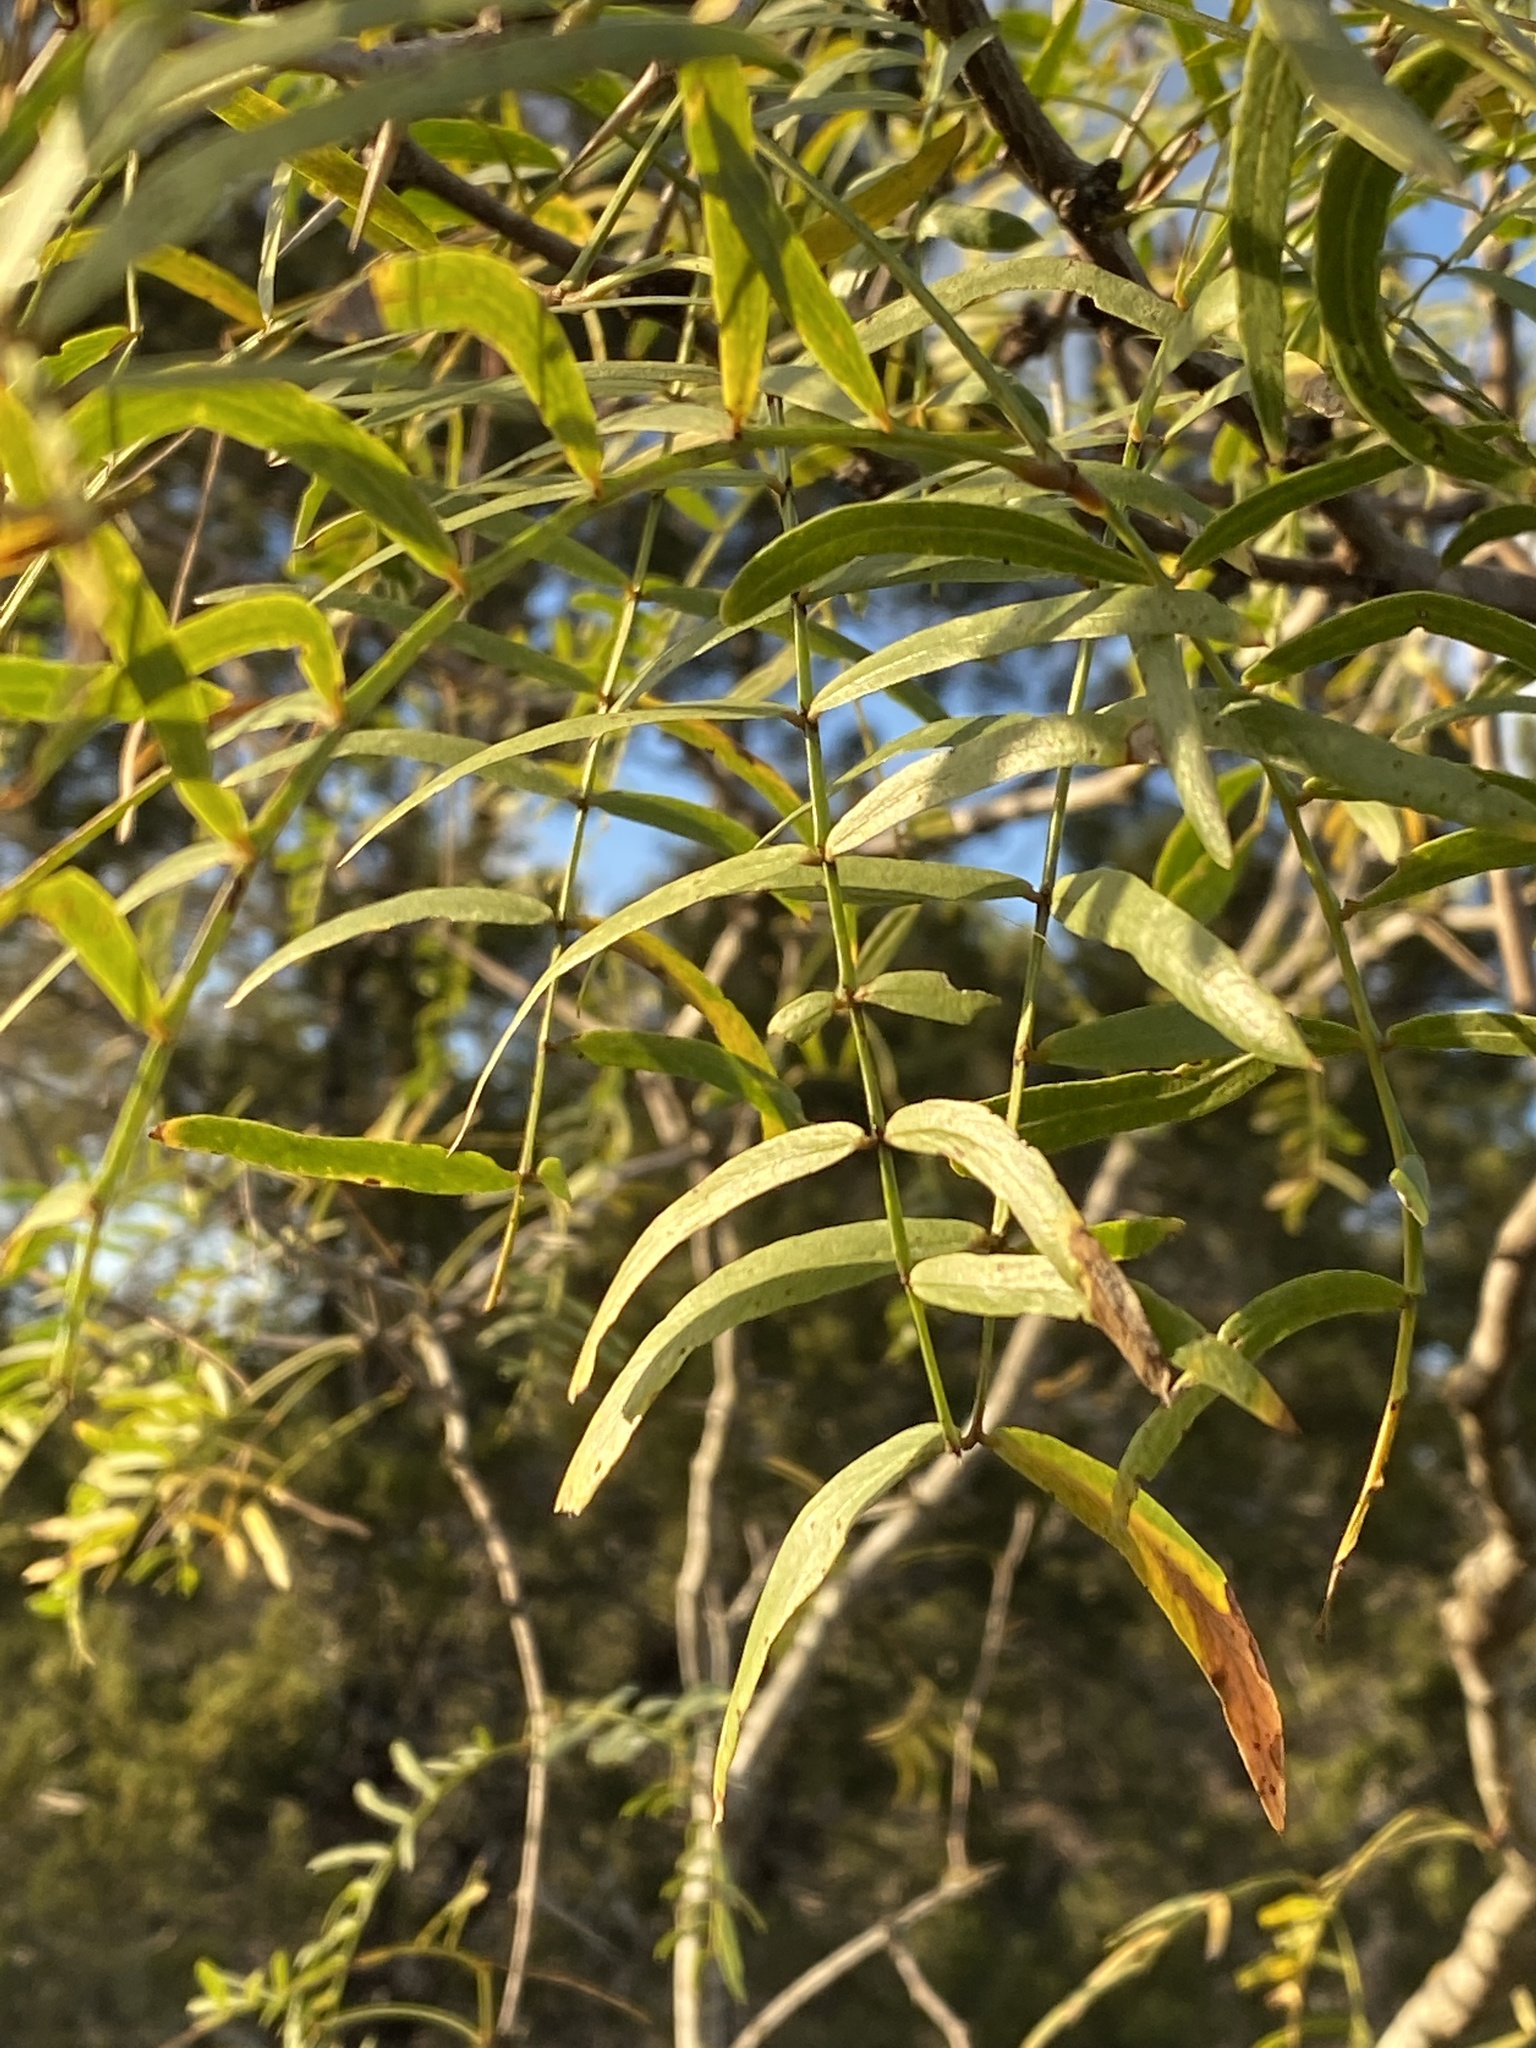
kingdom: Plantae
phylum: Tracheophyta
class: Magnoliopsida
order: Fabales
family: Fabaceae
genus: Prosopis
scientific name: Prosopis glandulosa
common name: Honey mesquite
